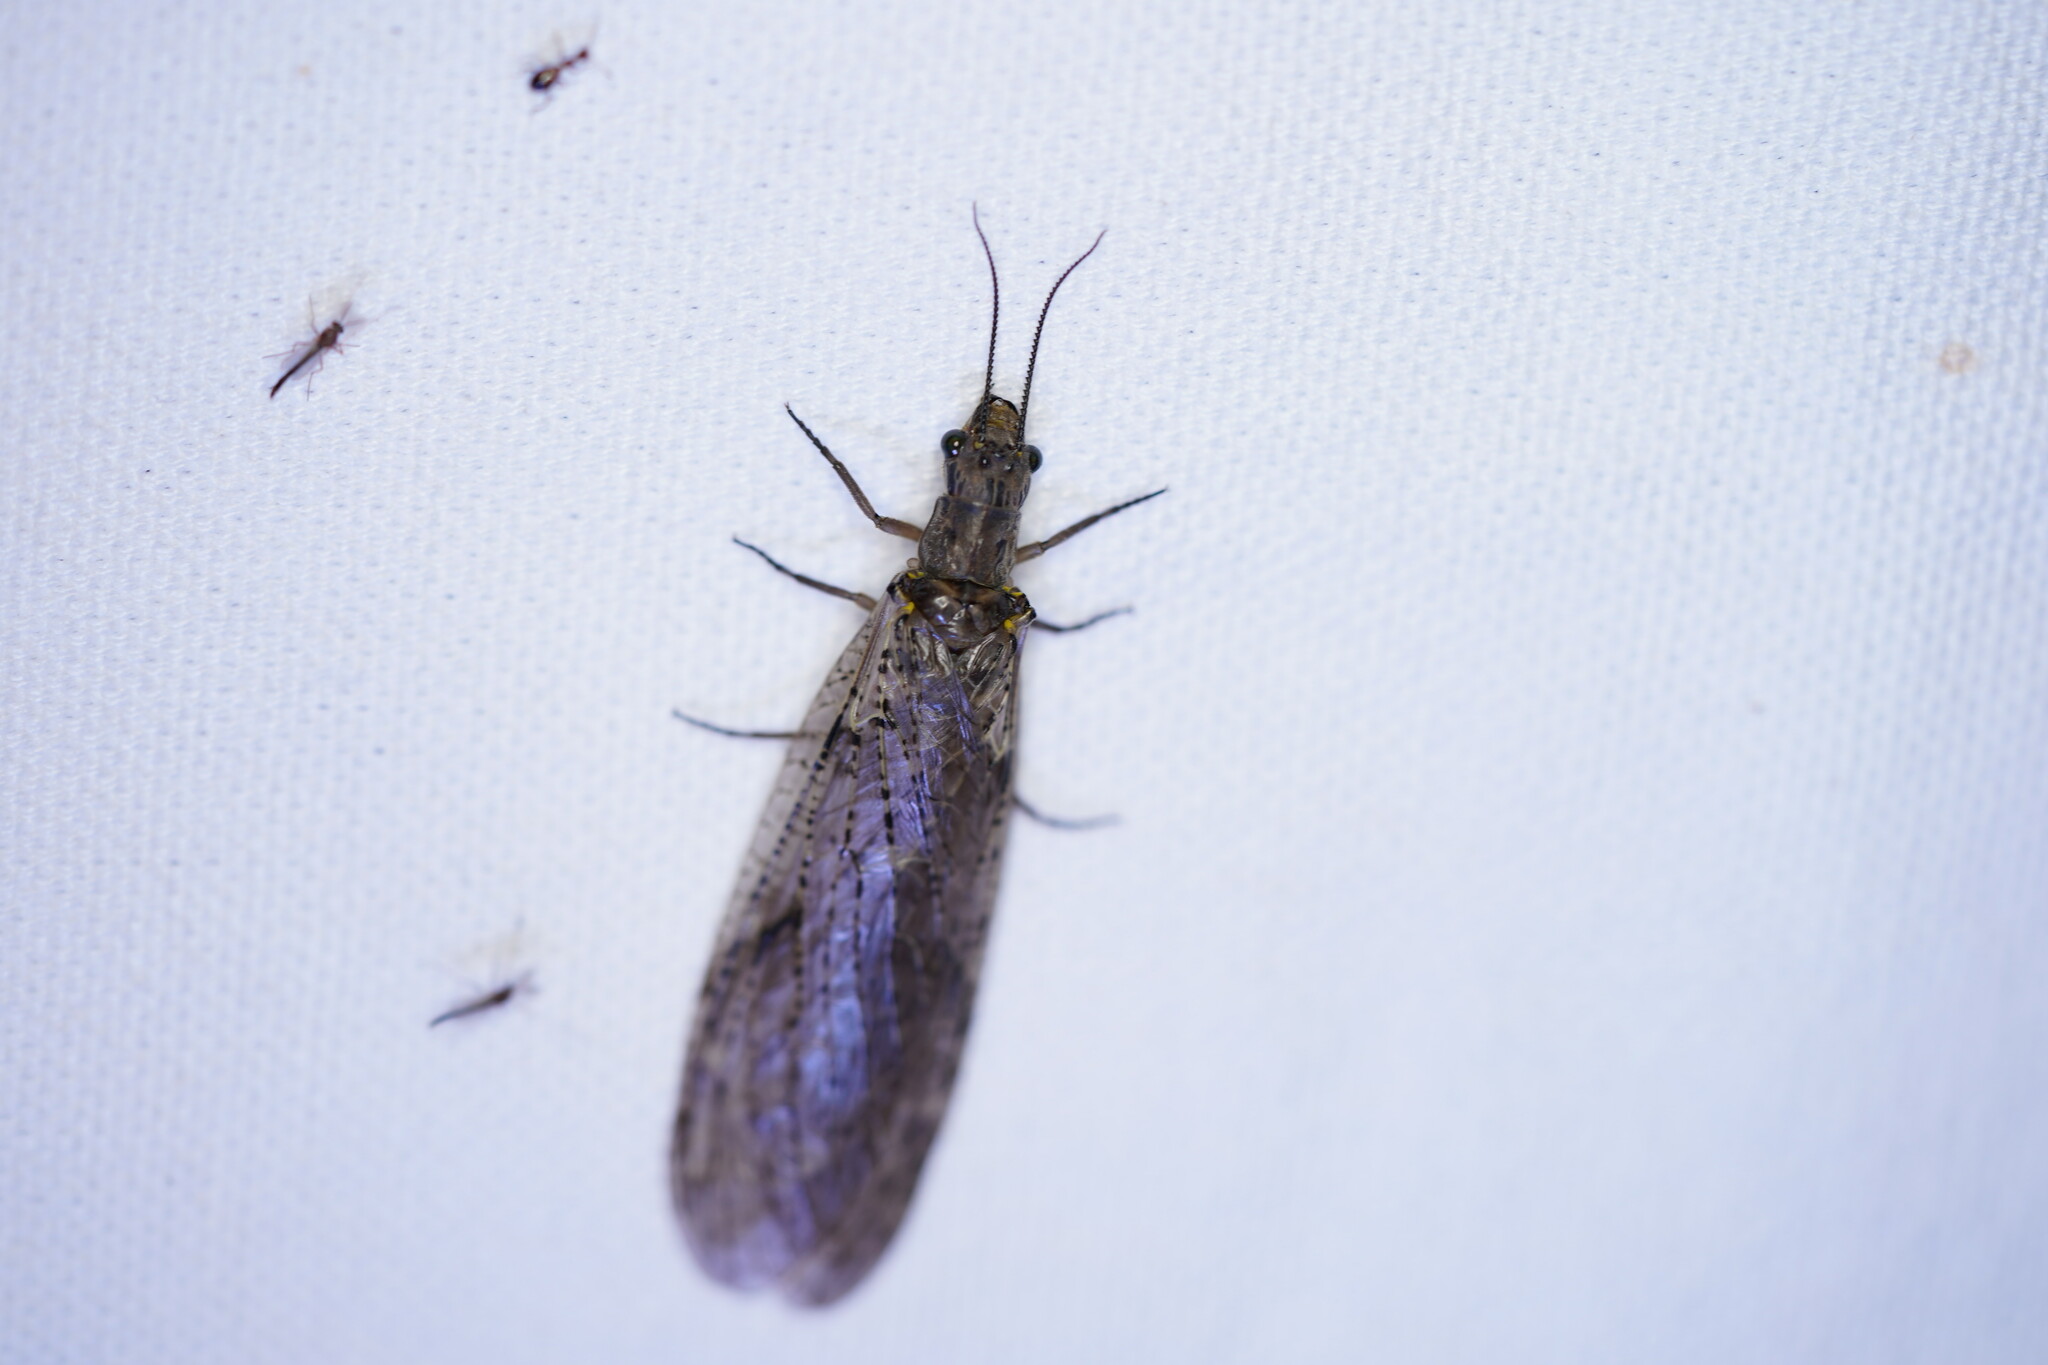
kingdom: Animalia
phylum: Arthropoda
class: Insecta
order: Megaloptera
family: Corydalidae
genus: Chauliodes
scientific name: Chauliodes rastricornis
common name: Spring fishfly
